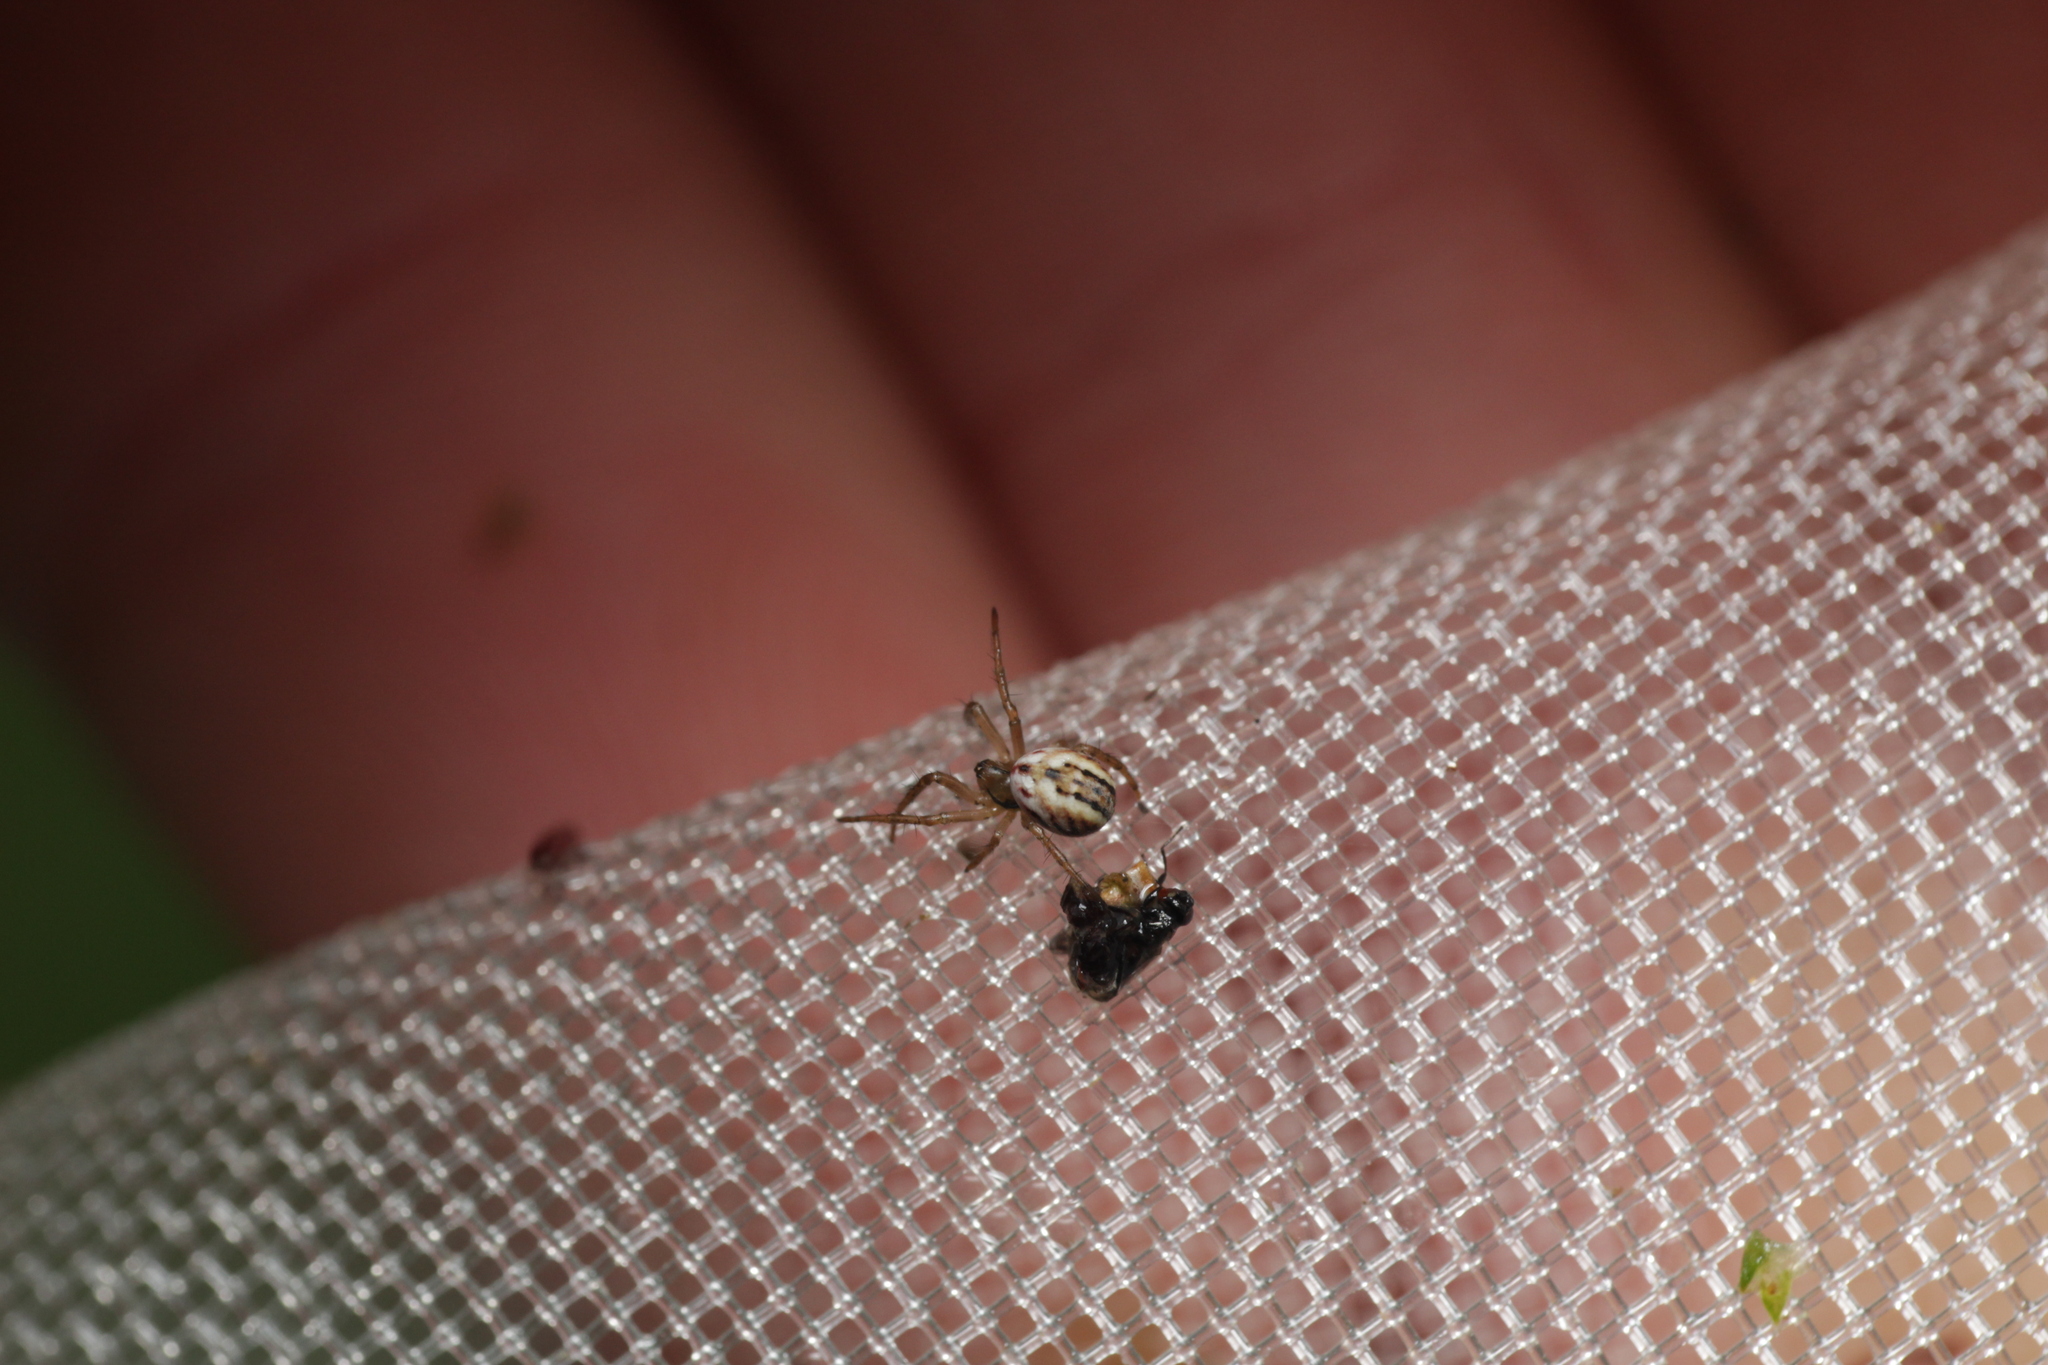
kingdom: Animalia
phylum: Arthropoda
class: Arachnida
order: Araneae
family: Araneidae
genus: Mangora
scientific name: Mangora acalypha
